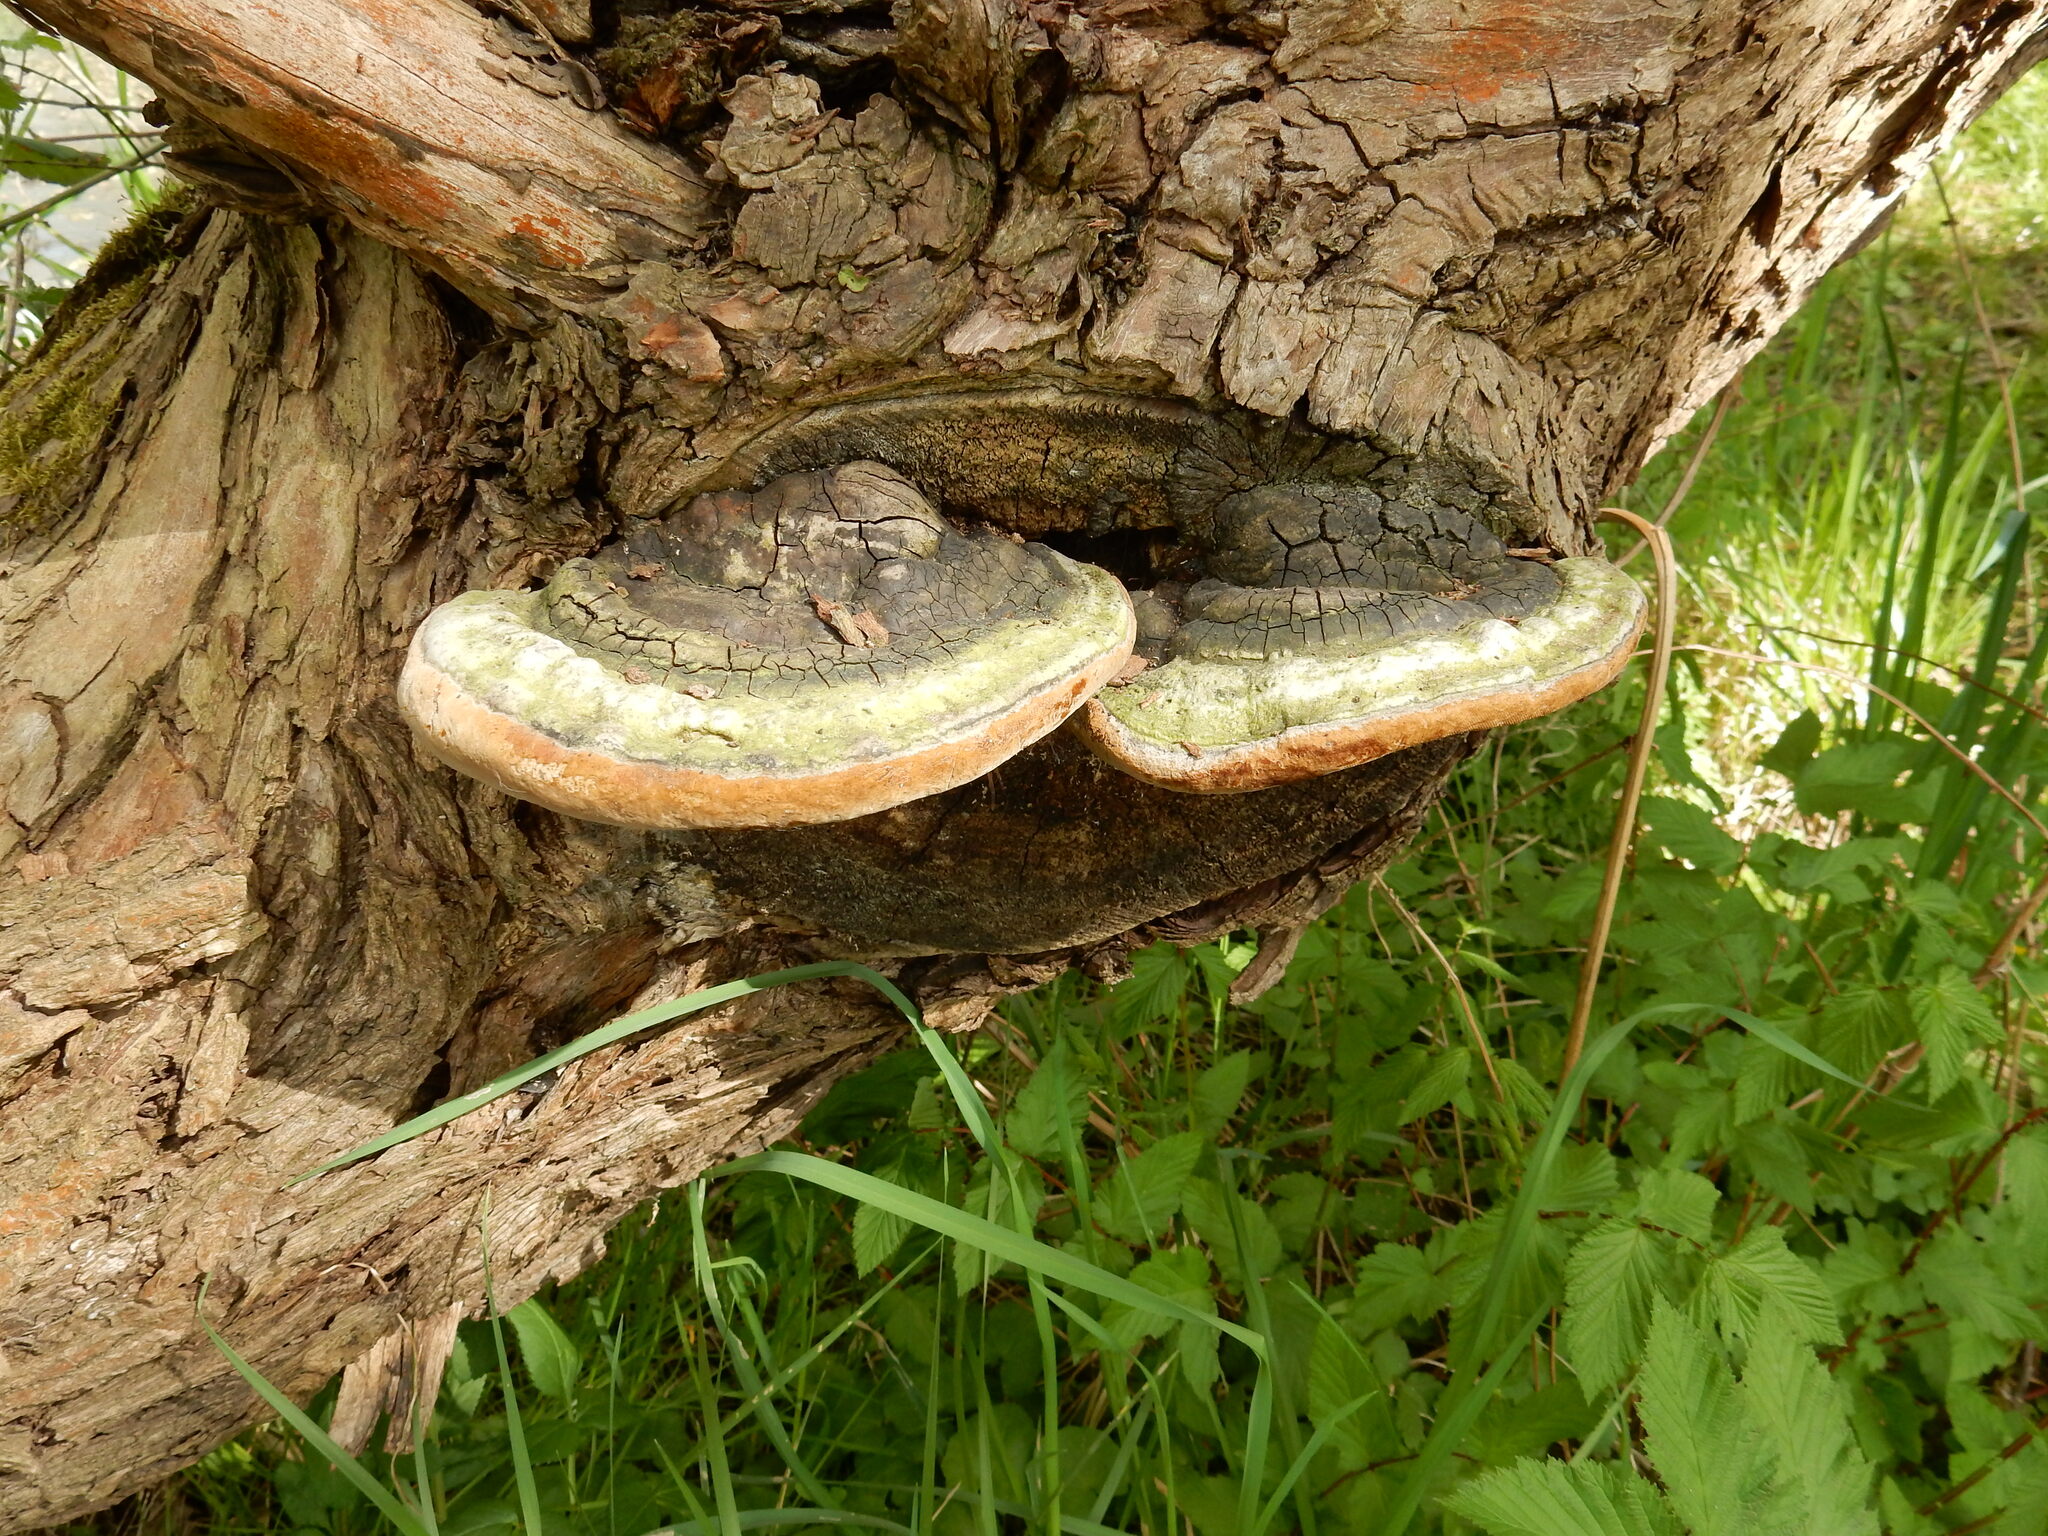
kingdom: Fungi
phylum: Basidiomycota
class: Agaricomycetes
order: Hymenochaetales
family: Hymenochaetaceae
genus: Phellinus
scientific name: Phellinus igniarius
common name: Willow bracket
